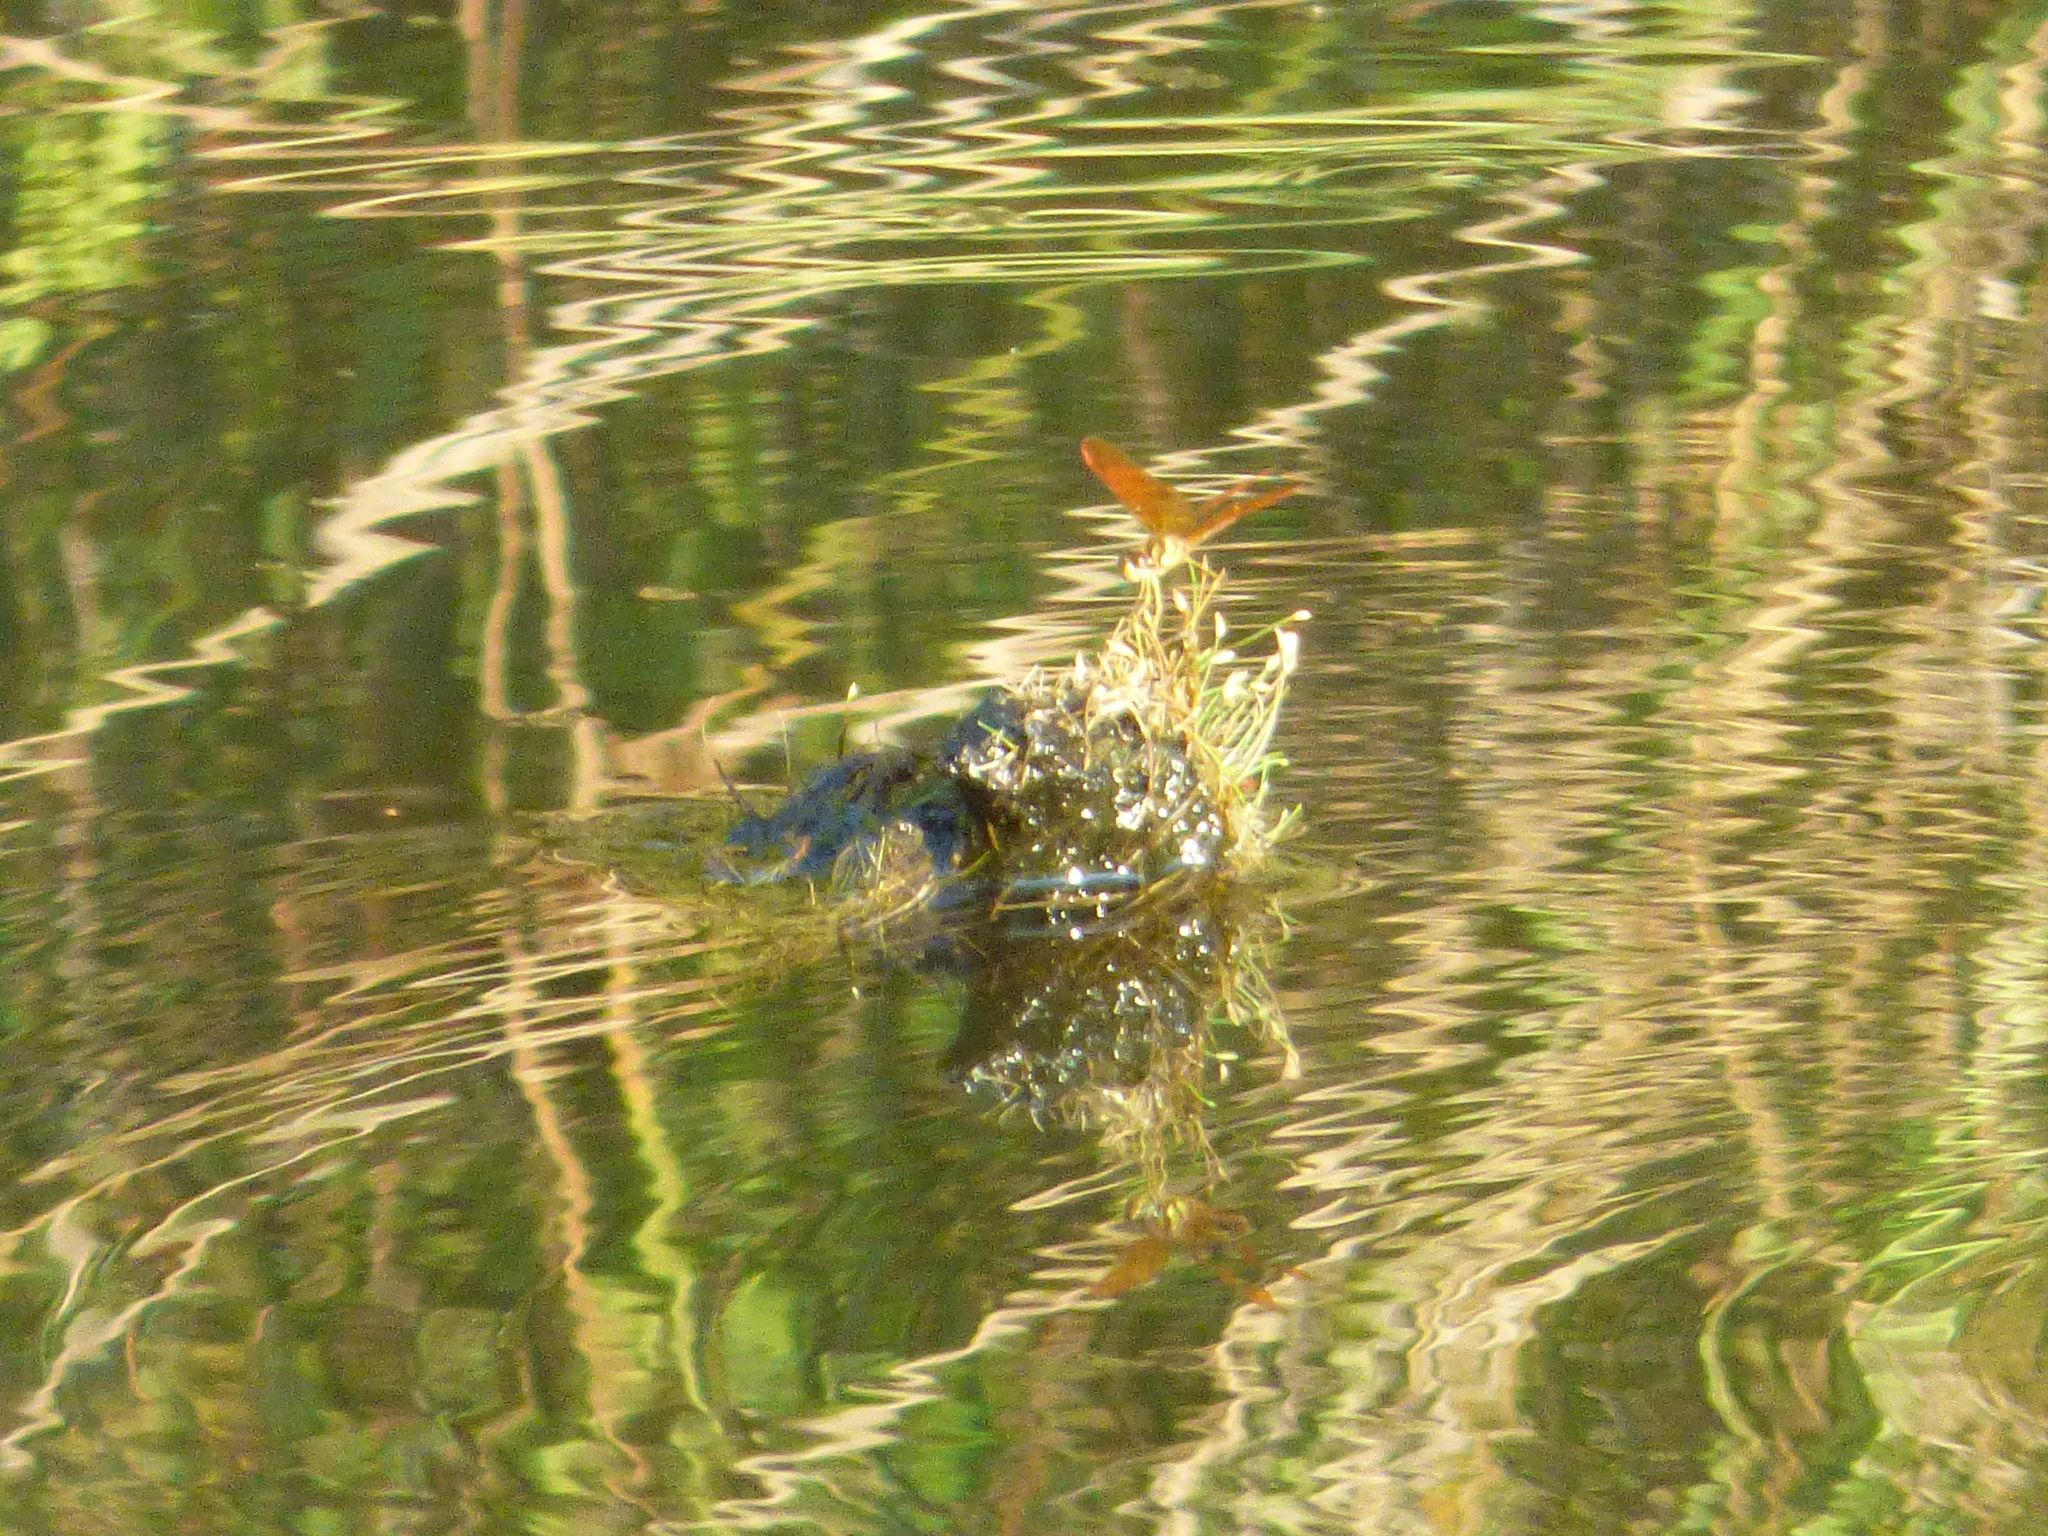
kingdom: Animalia
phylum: Arthropoda
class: Insecta
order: Odonata
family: Libellulidae
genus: Perithemis
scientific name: Perithemis tenera
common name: Eastern amberwing
